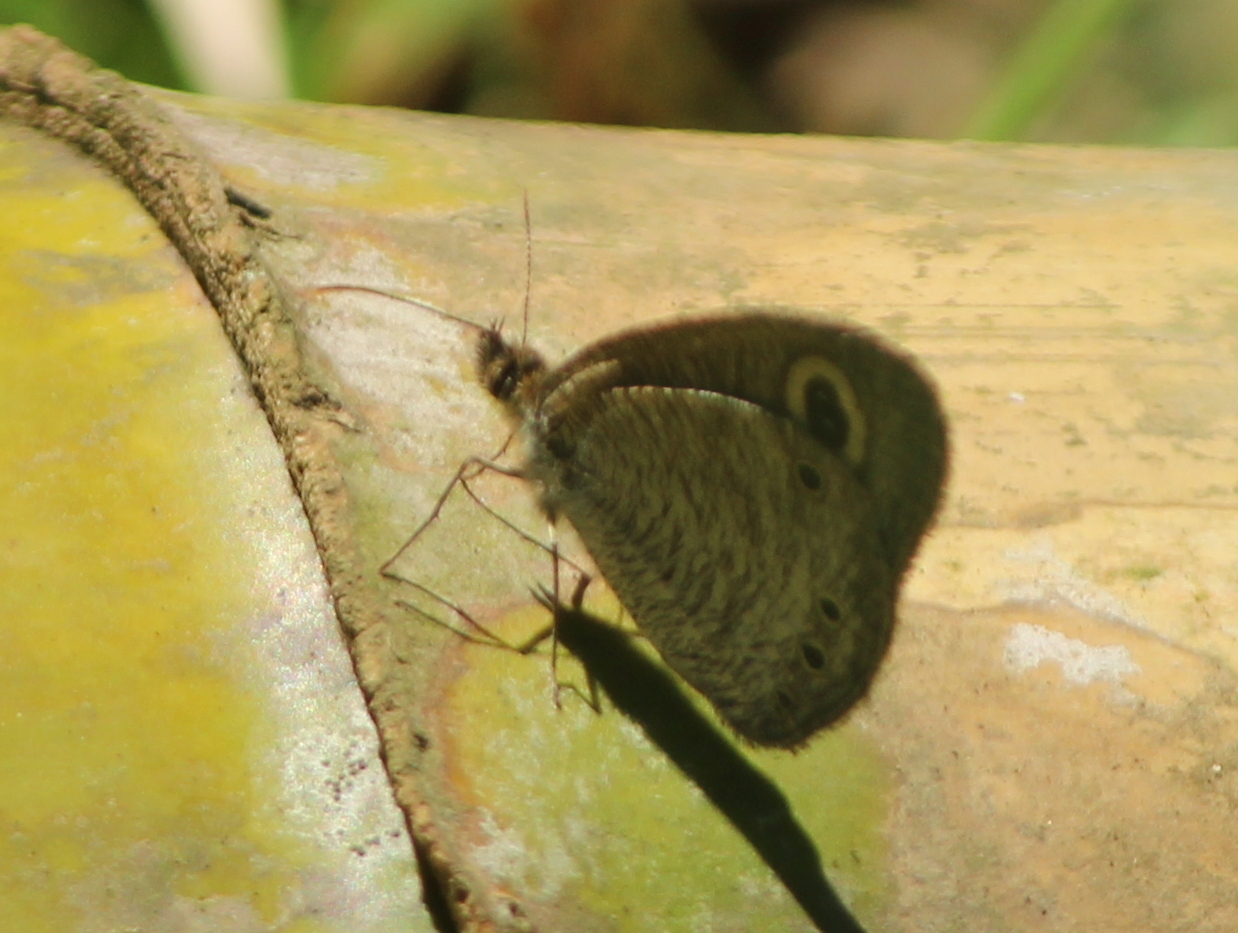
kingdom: Animalia
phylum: Arthropoda
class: Insecta
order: Lepidoptera
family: Nymphalidae
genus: Ypthima
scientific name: Ypthima huebneri
